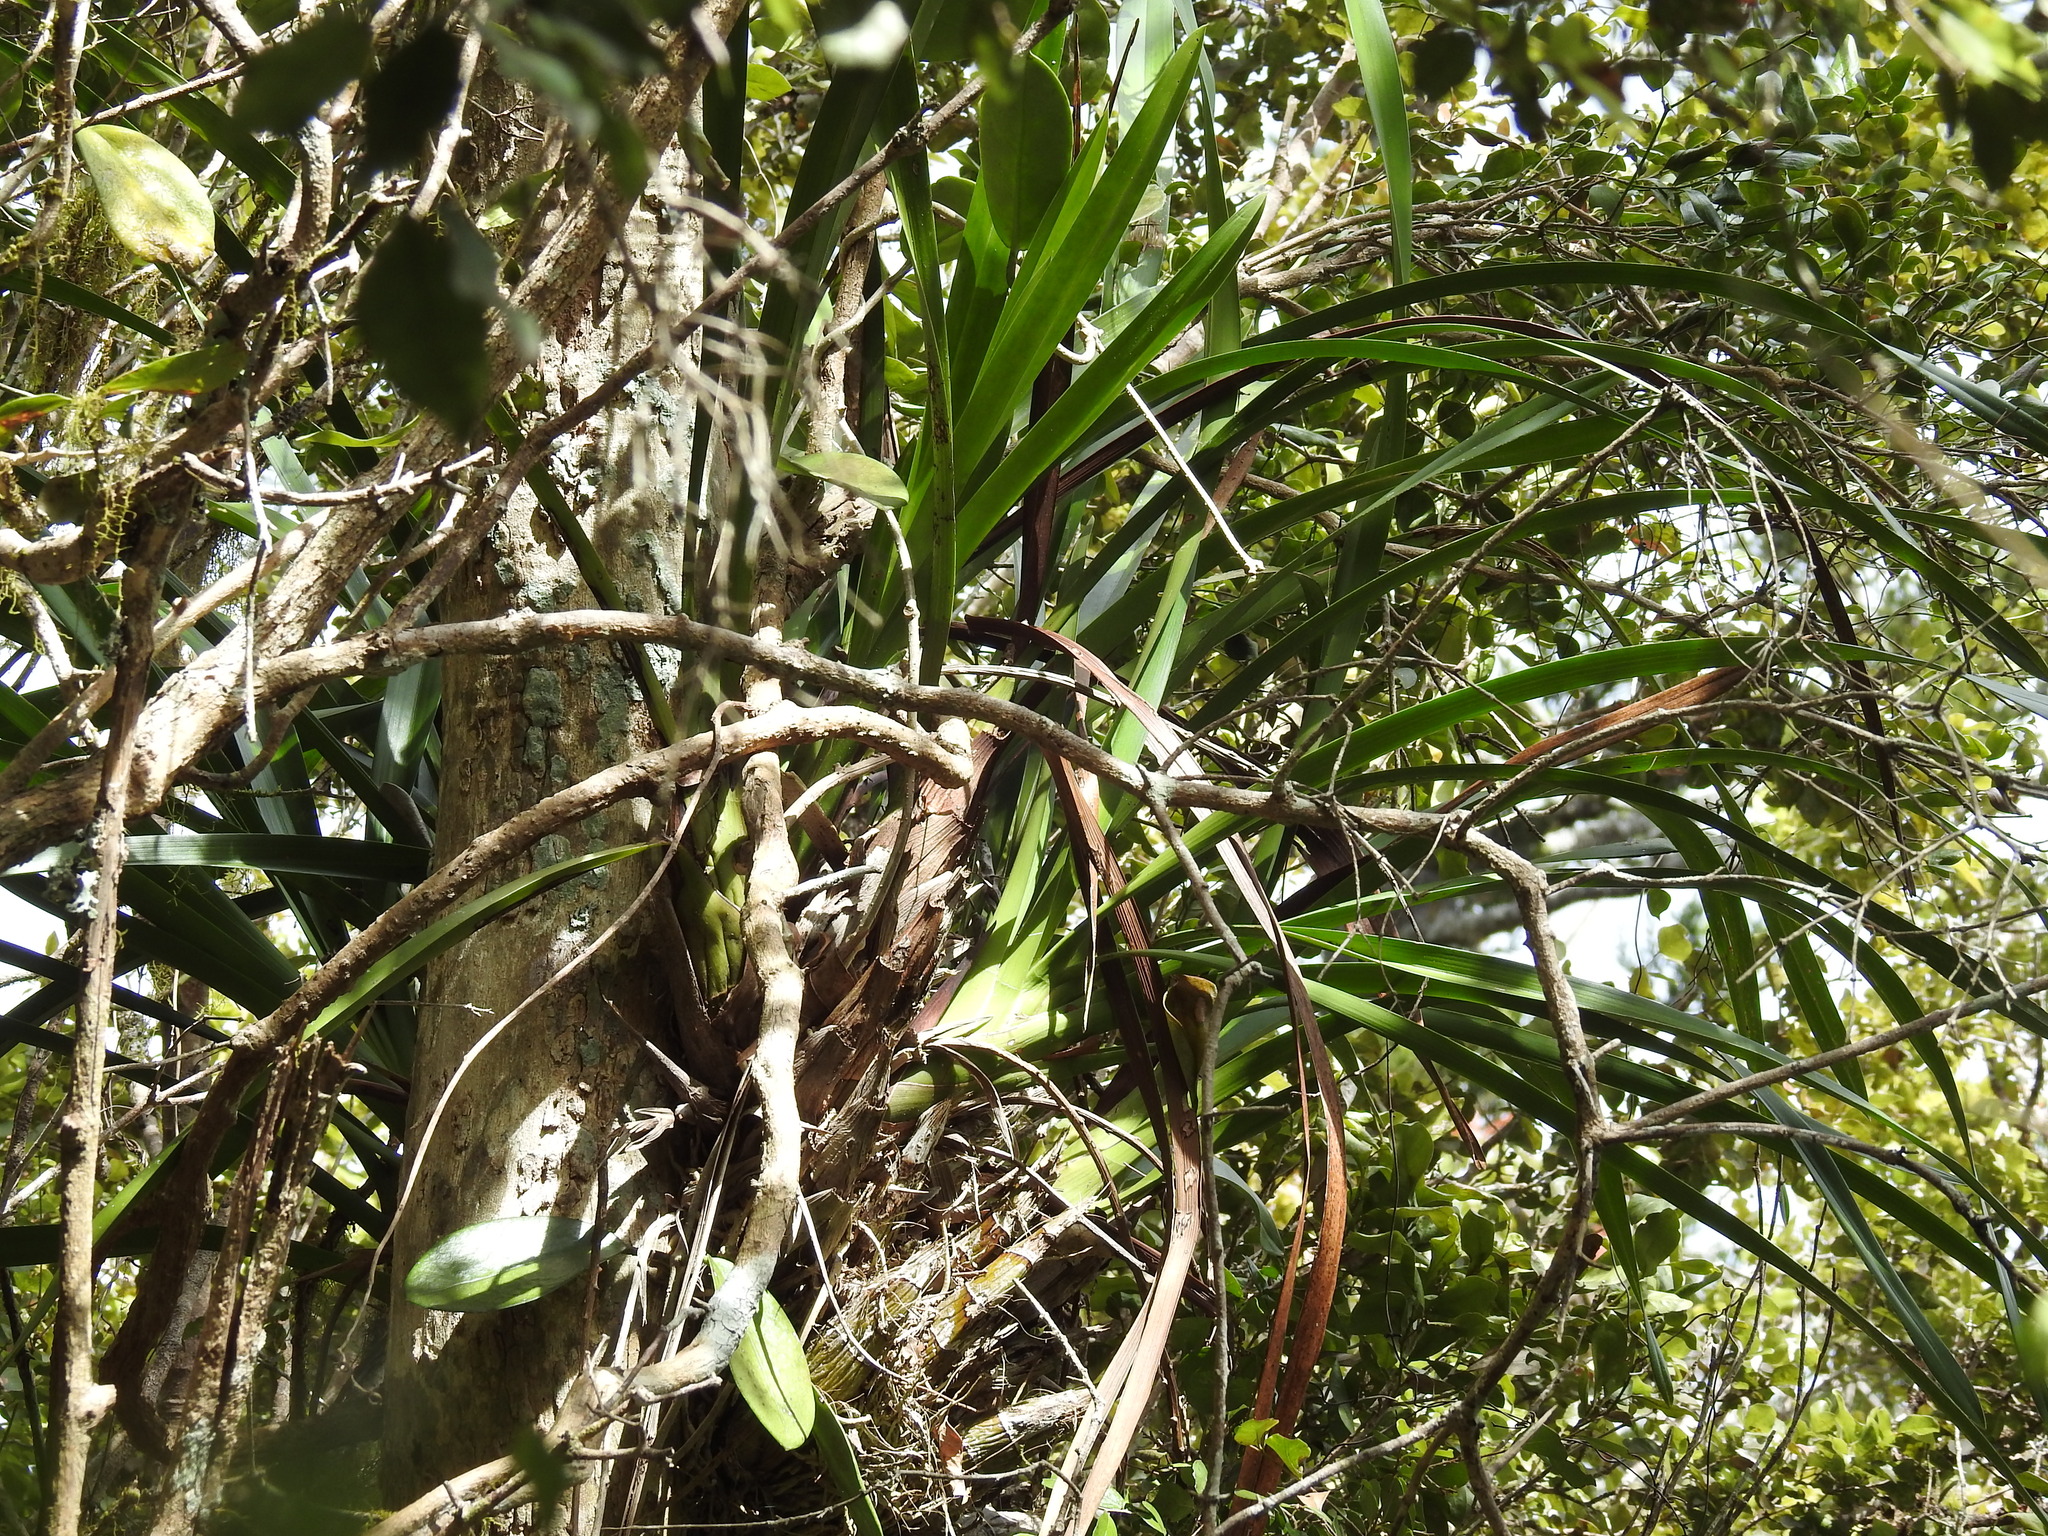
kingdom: Plantae
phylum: Tracheophyta
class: Liliopsida
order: Asparagales
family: Orchidaceae
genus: Cymbidium
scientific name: Cymbidium madidum
